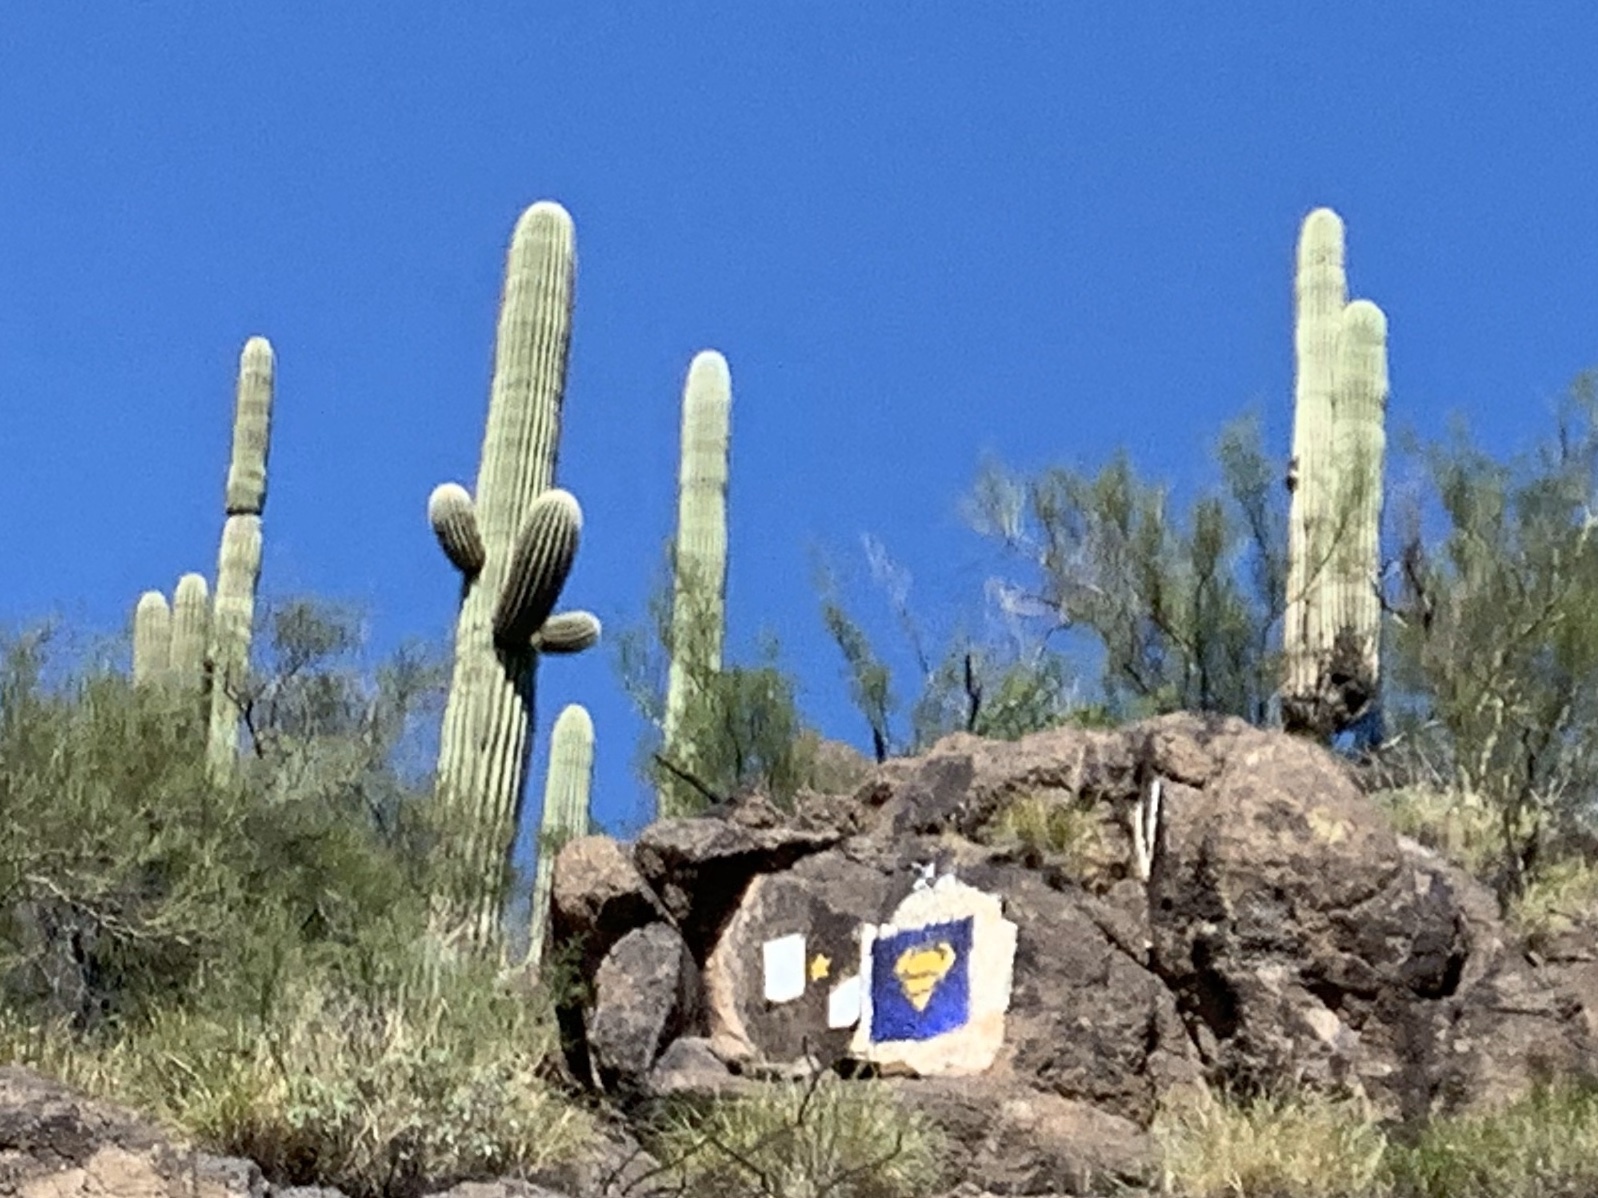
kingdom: Plantae
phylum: Tracheophyta
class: Magnoliopsida
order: Caryophyllales
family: Cactaceae
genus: Carnegiea
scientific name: Carnegiea gigantea
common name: Saguaro
